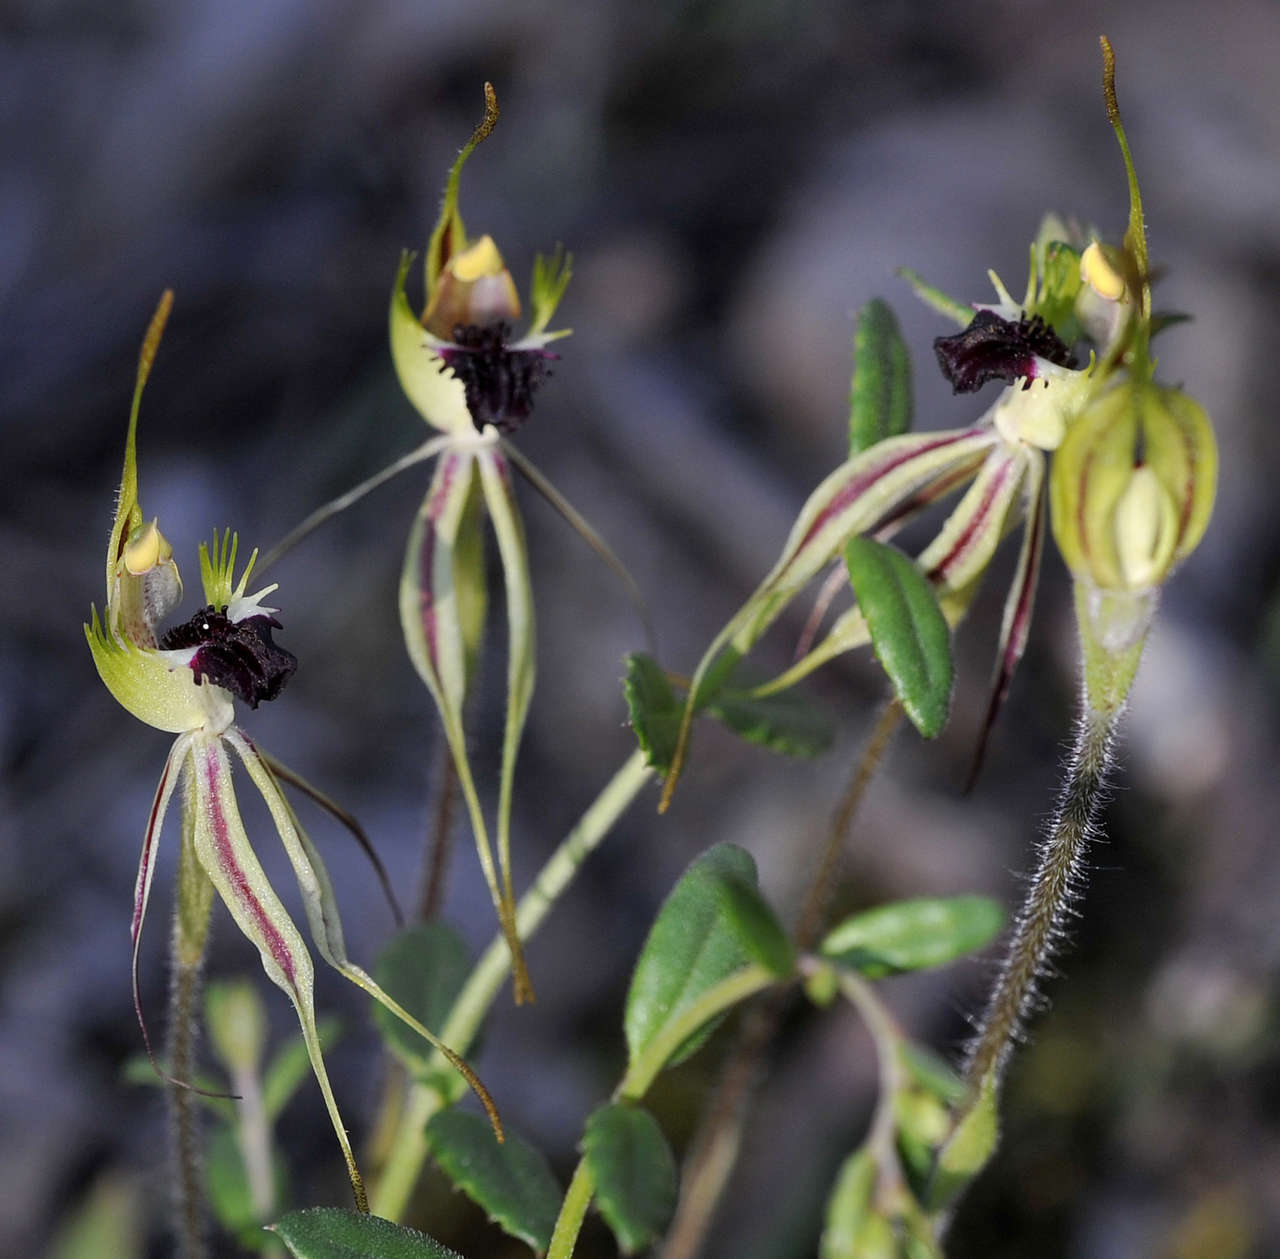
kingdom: Plantae
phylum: Tracheophyta
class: Liliopsida
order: Asparagales
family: Orchidaceae
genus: Caladenia
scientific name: Caladenia parva
